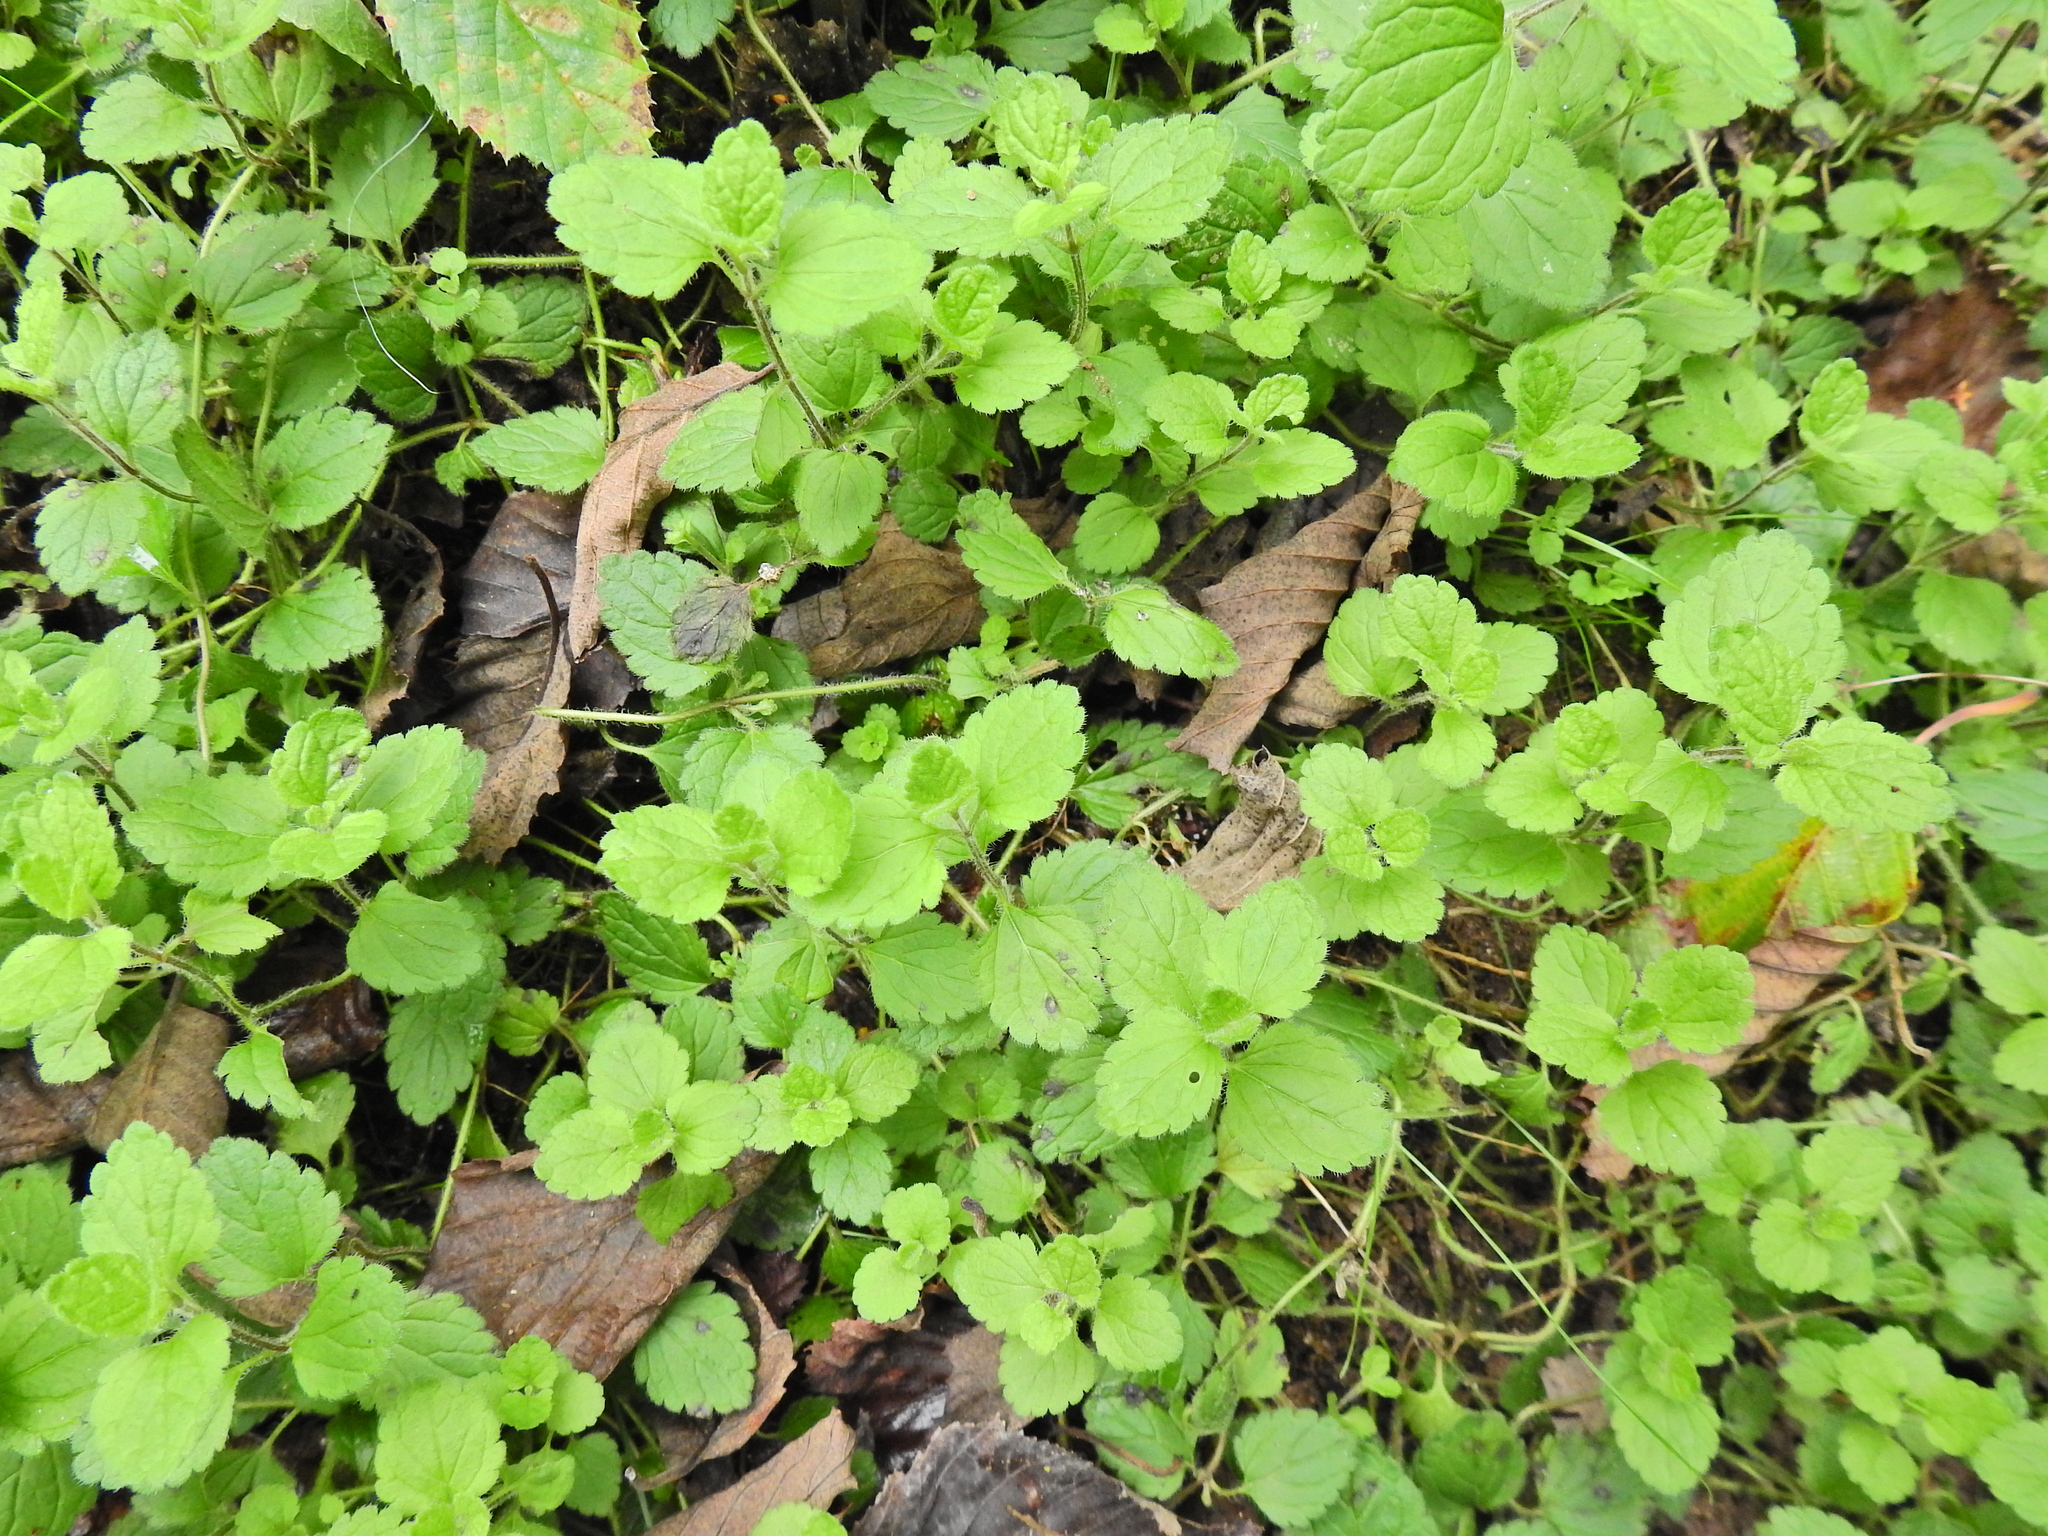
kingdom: Plantae
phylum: Tracheophyta
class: Magnoliopsida
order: Lamiales
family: Plantaginaceae
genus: Veronica
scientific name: Veronica montana
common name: Wood speedwell
